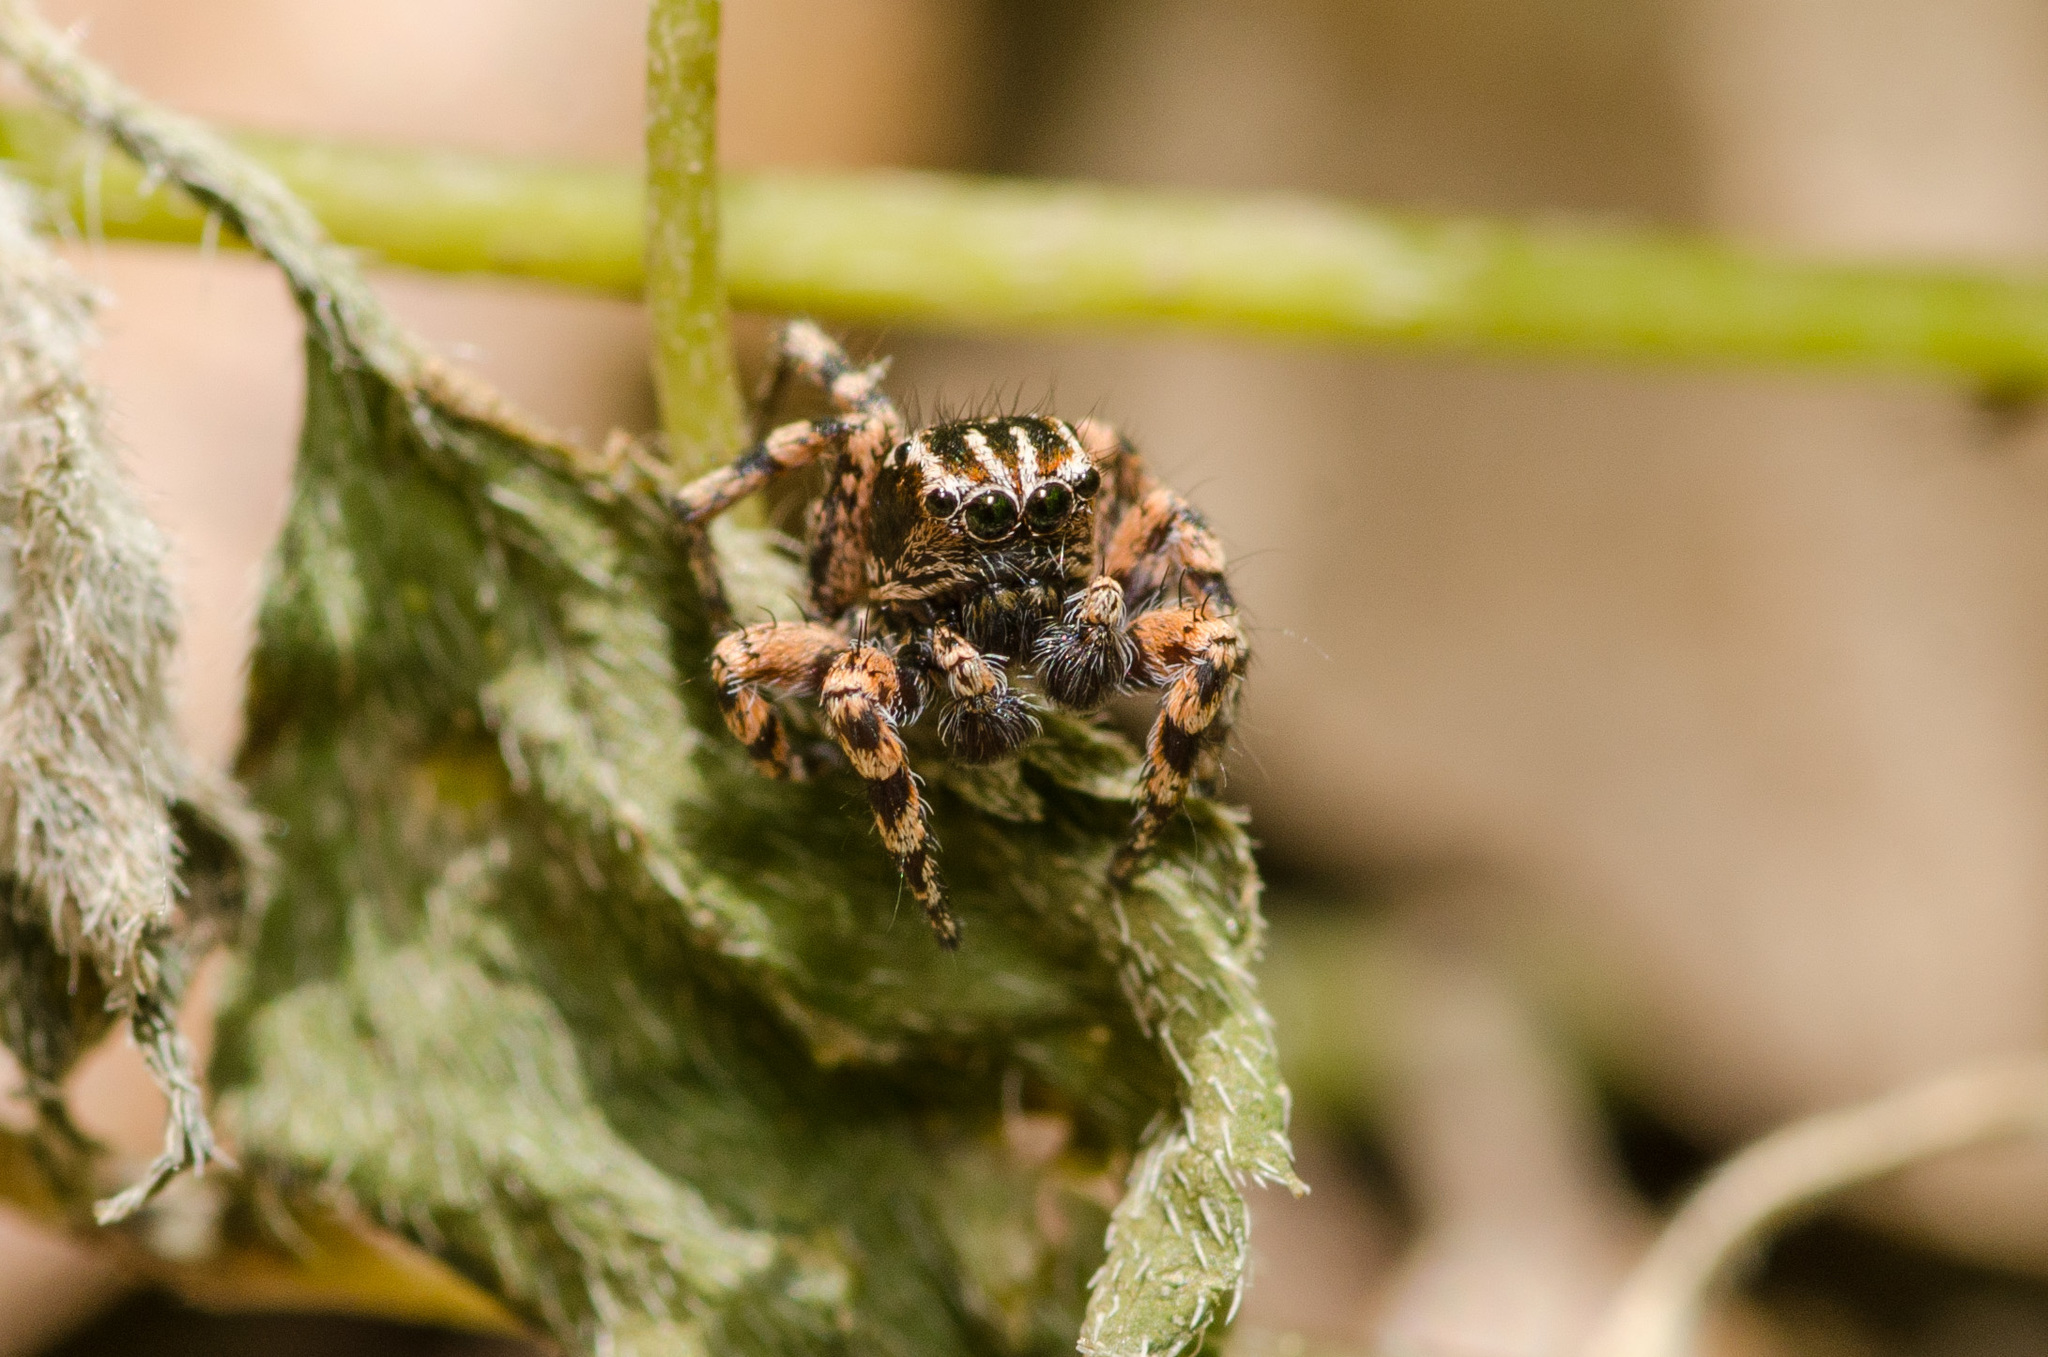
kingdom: Animalia
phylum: Arthropoda
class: Arachnida
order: Araneae
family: Salticidae
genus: Habronattus
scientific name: Habronattus fallax
